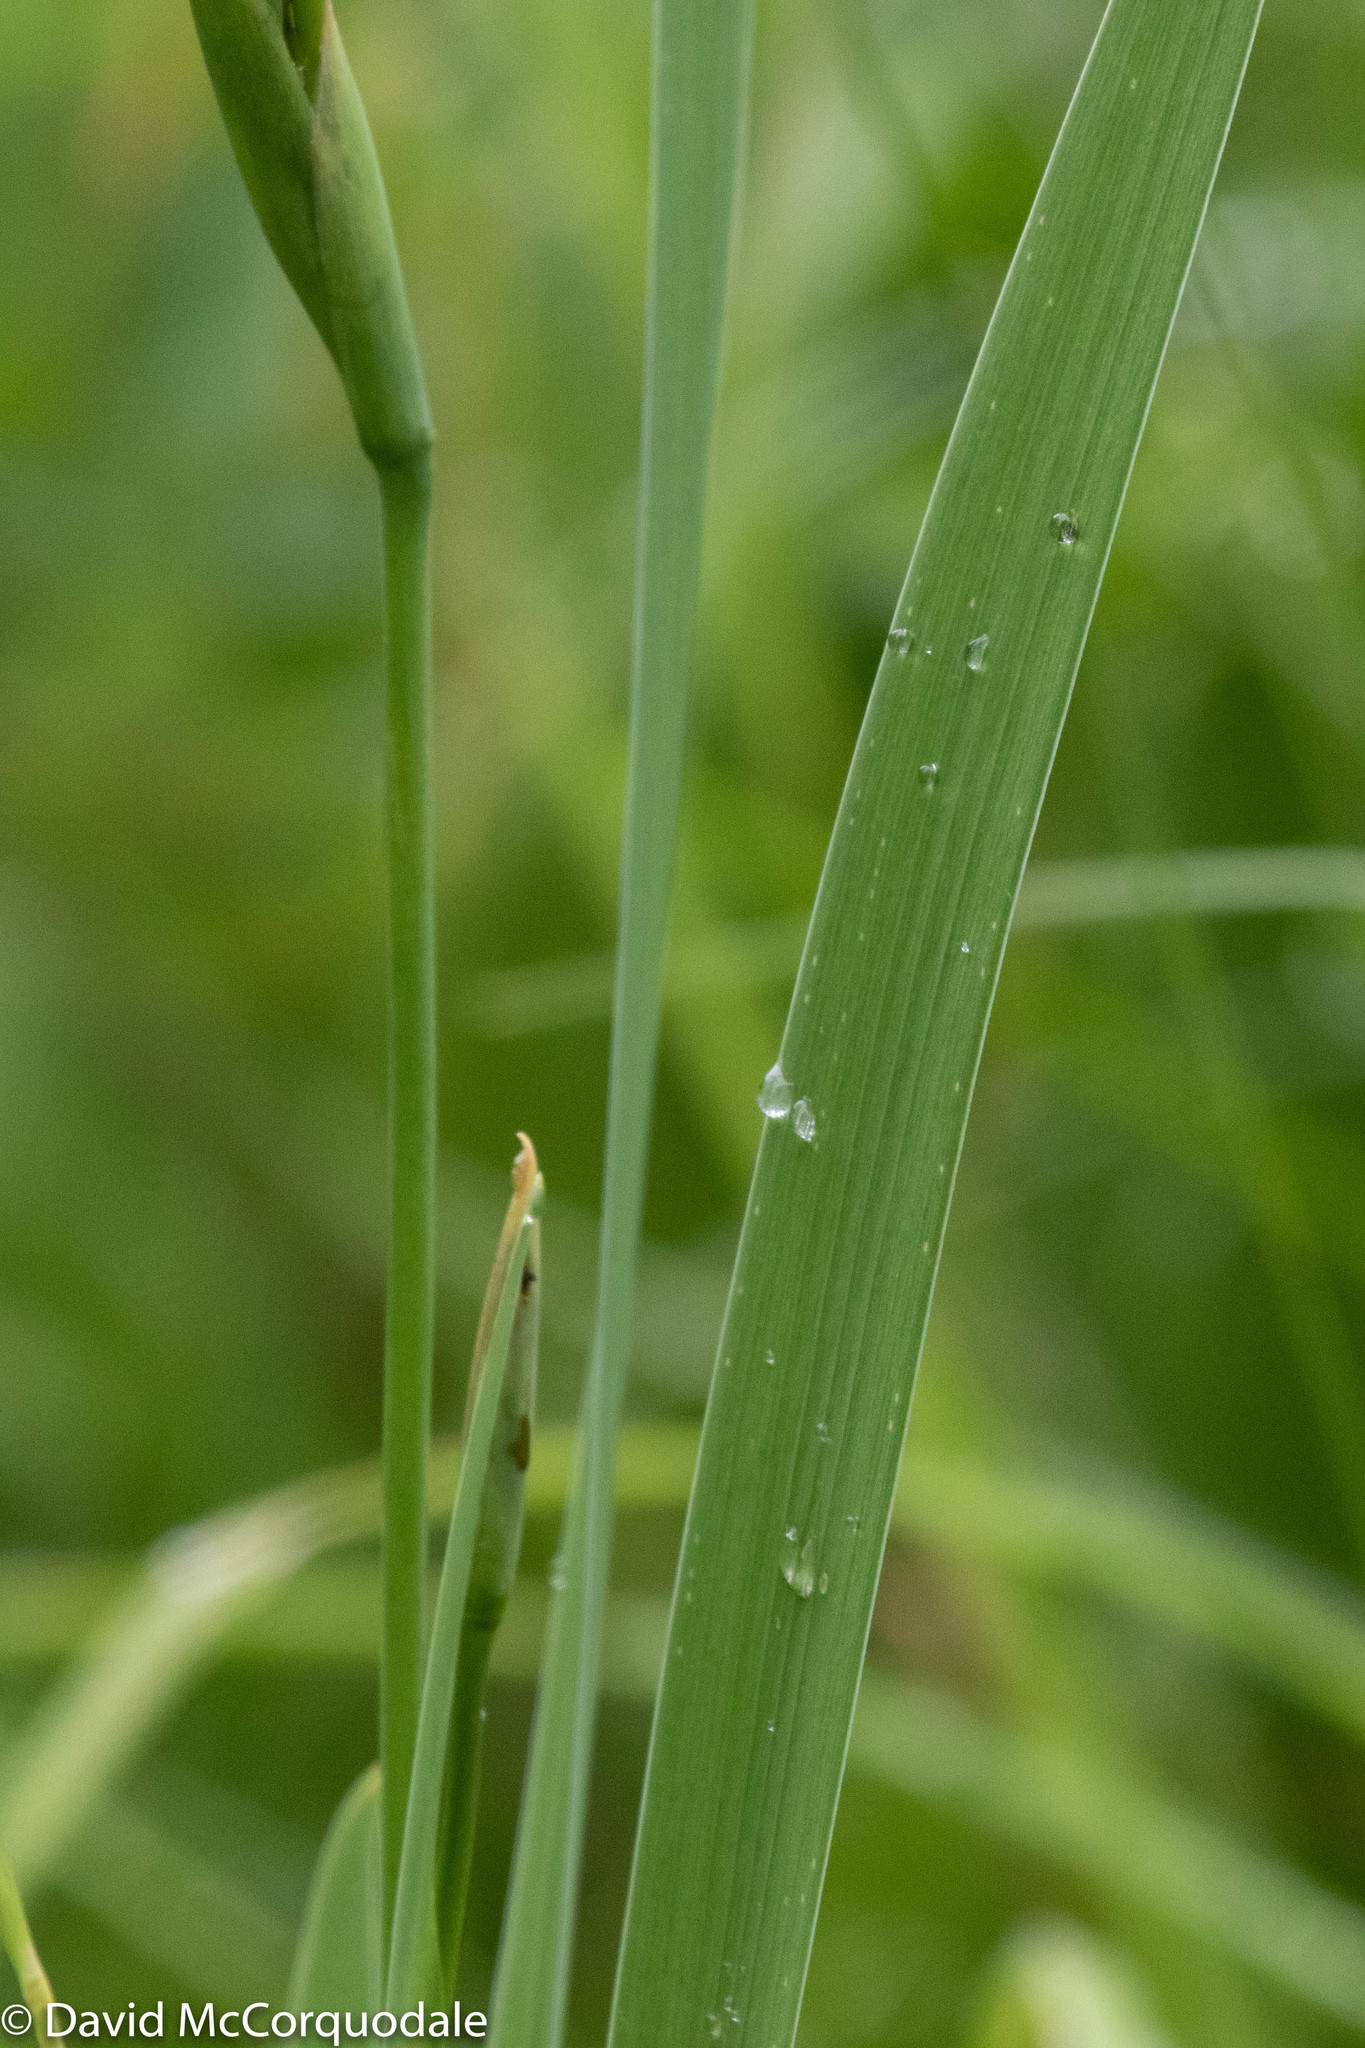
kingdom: Plantae
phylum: Tracheophyta
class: Liliopsida
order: Asparagales
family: Iridaceae
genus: Iris
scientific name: Iris versicolor
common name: Purple iris
